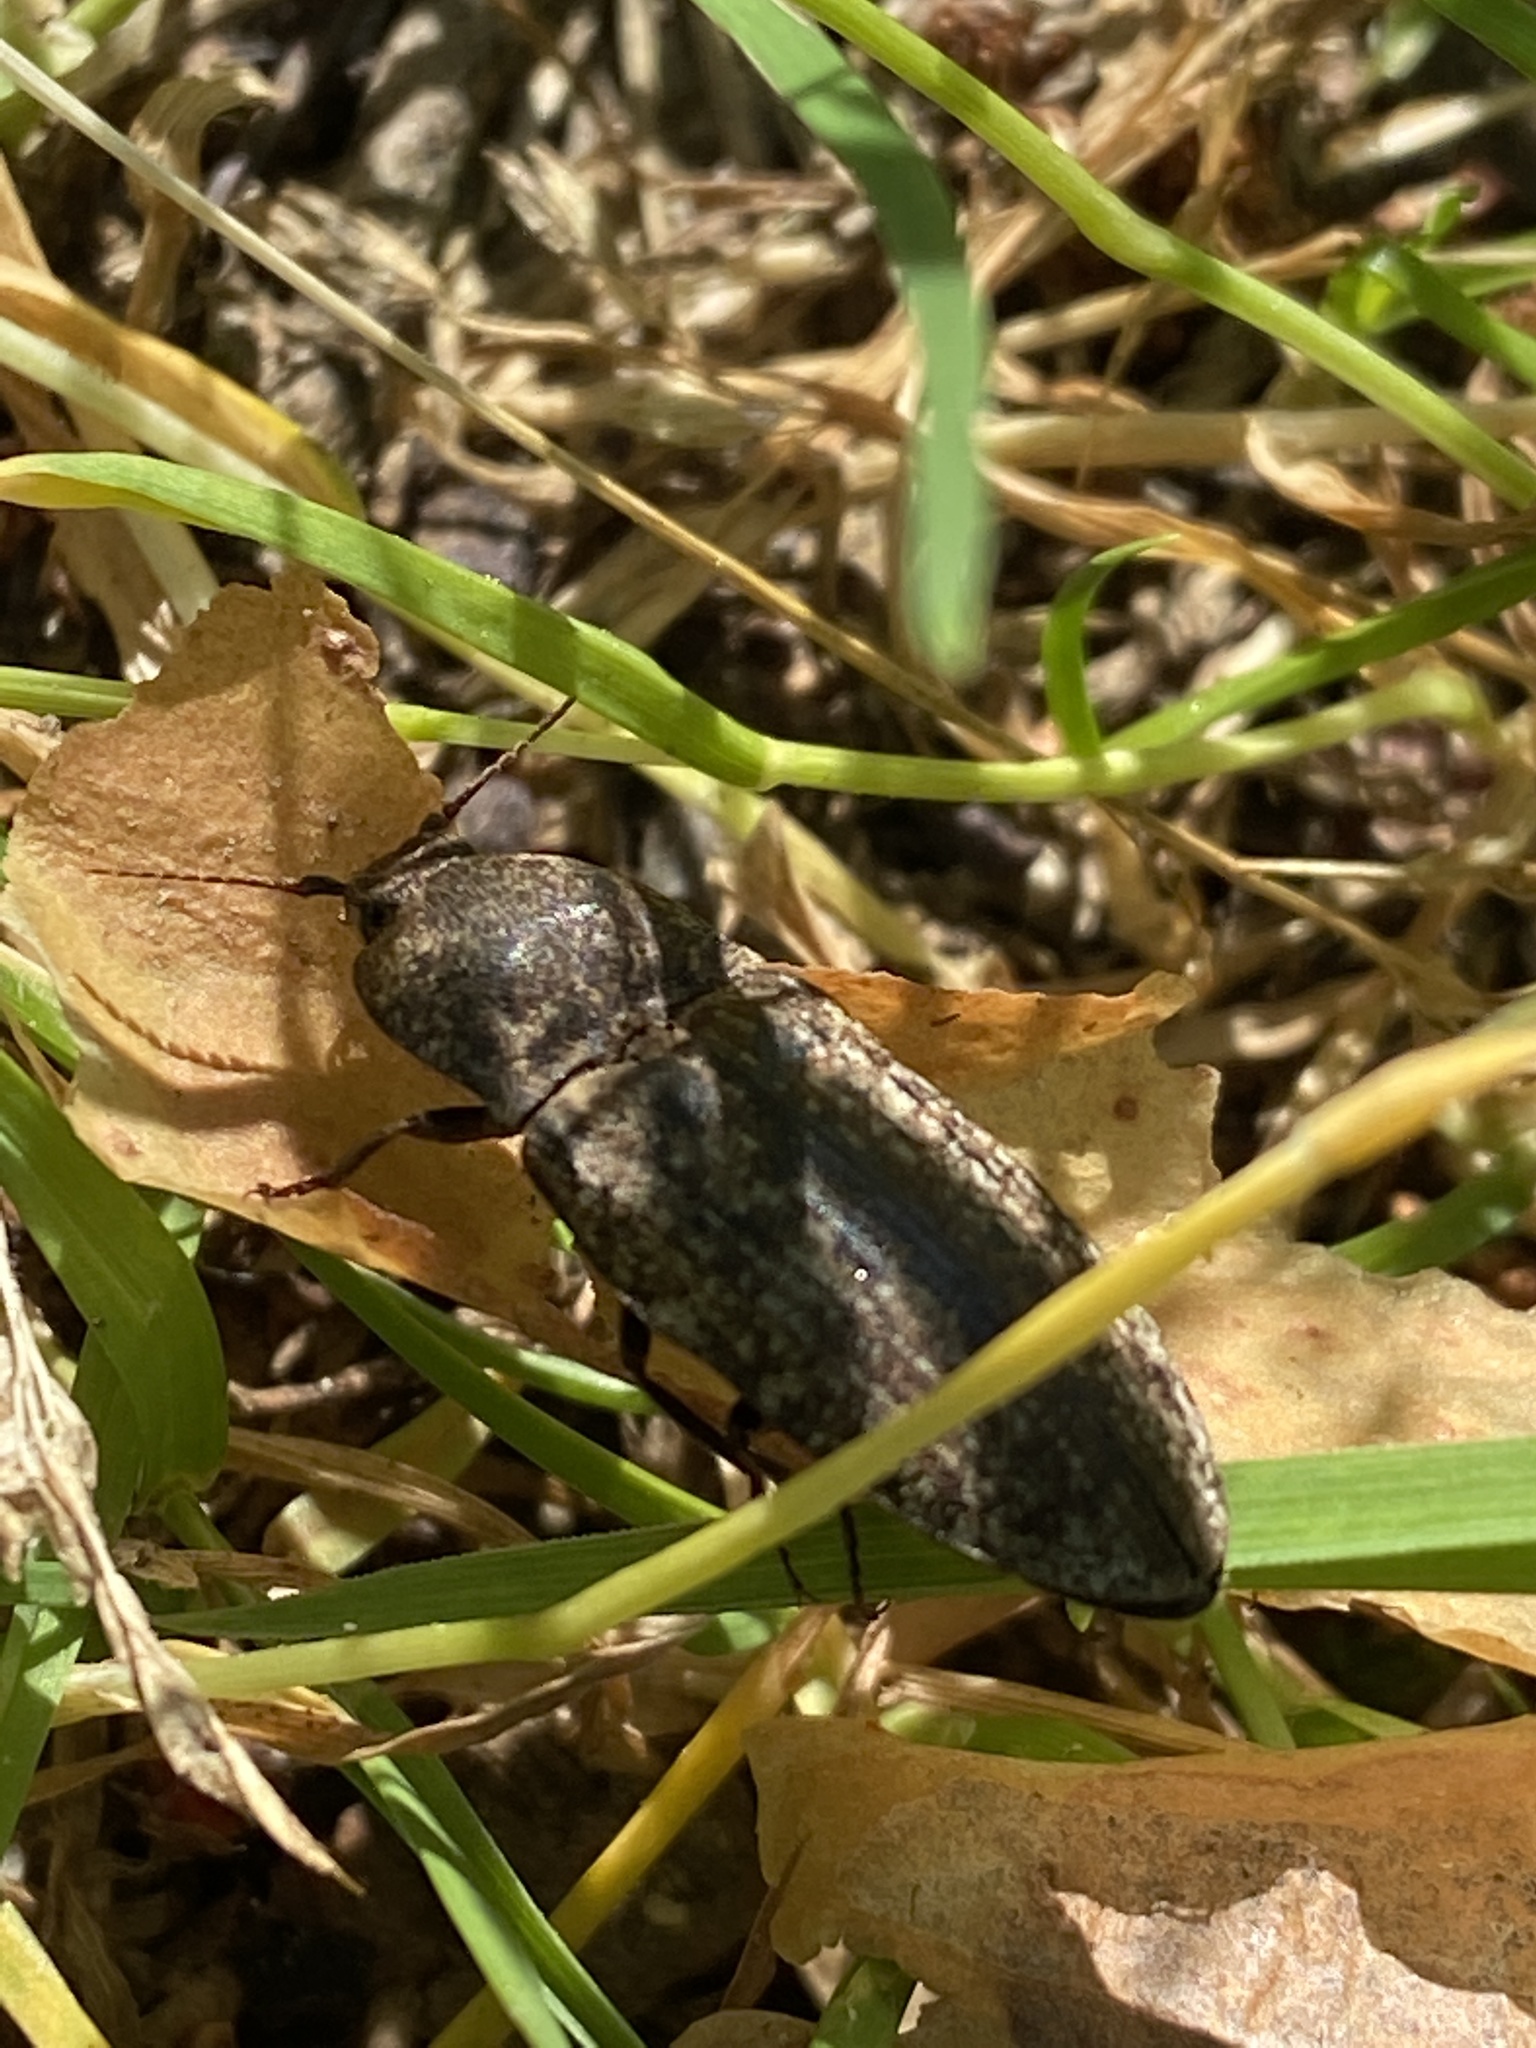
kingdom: Animalia
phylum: Arthropoda
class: Insecta
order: Coleoptera
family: Elateridae
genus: Agrypnus
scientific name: Agrypnus murinus
